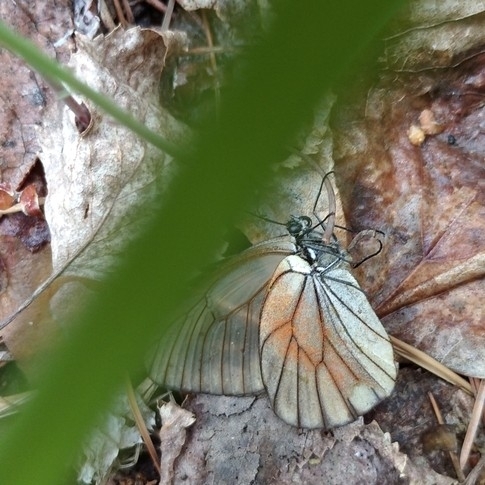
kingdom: Animalia
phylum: Arthropoda
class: Insecta
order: Lepidoptera
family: Pieridae
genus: Aporia
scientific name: Aporia crataegi
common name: Black-veined white
